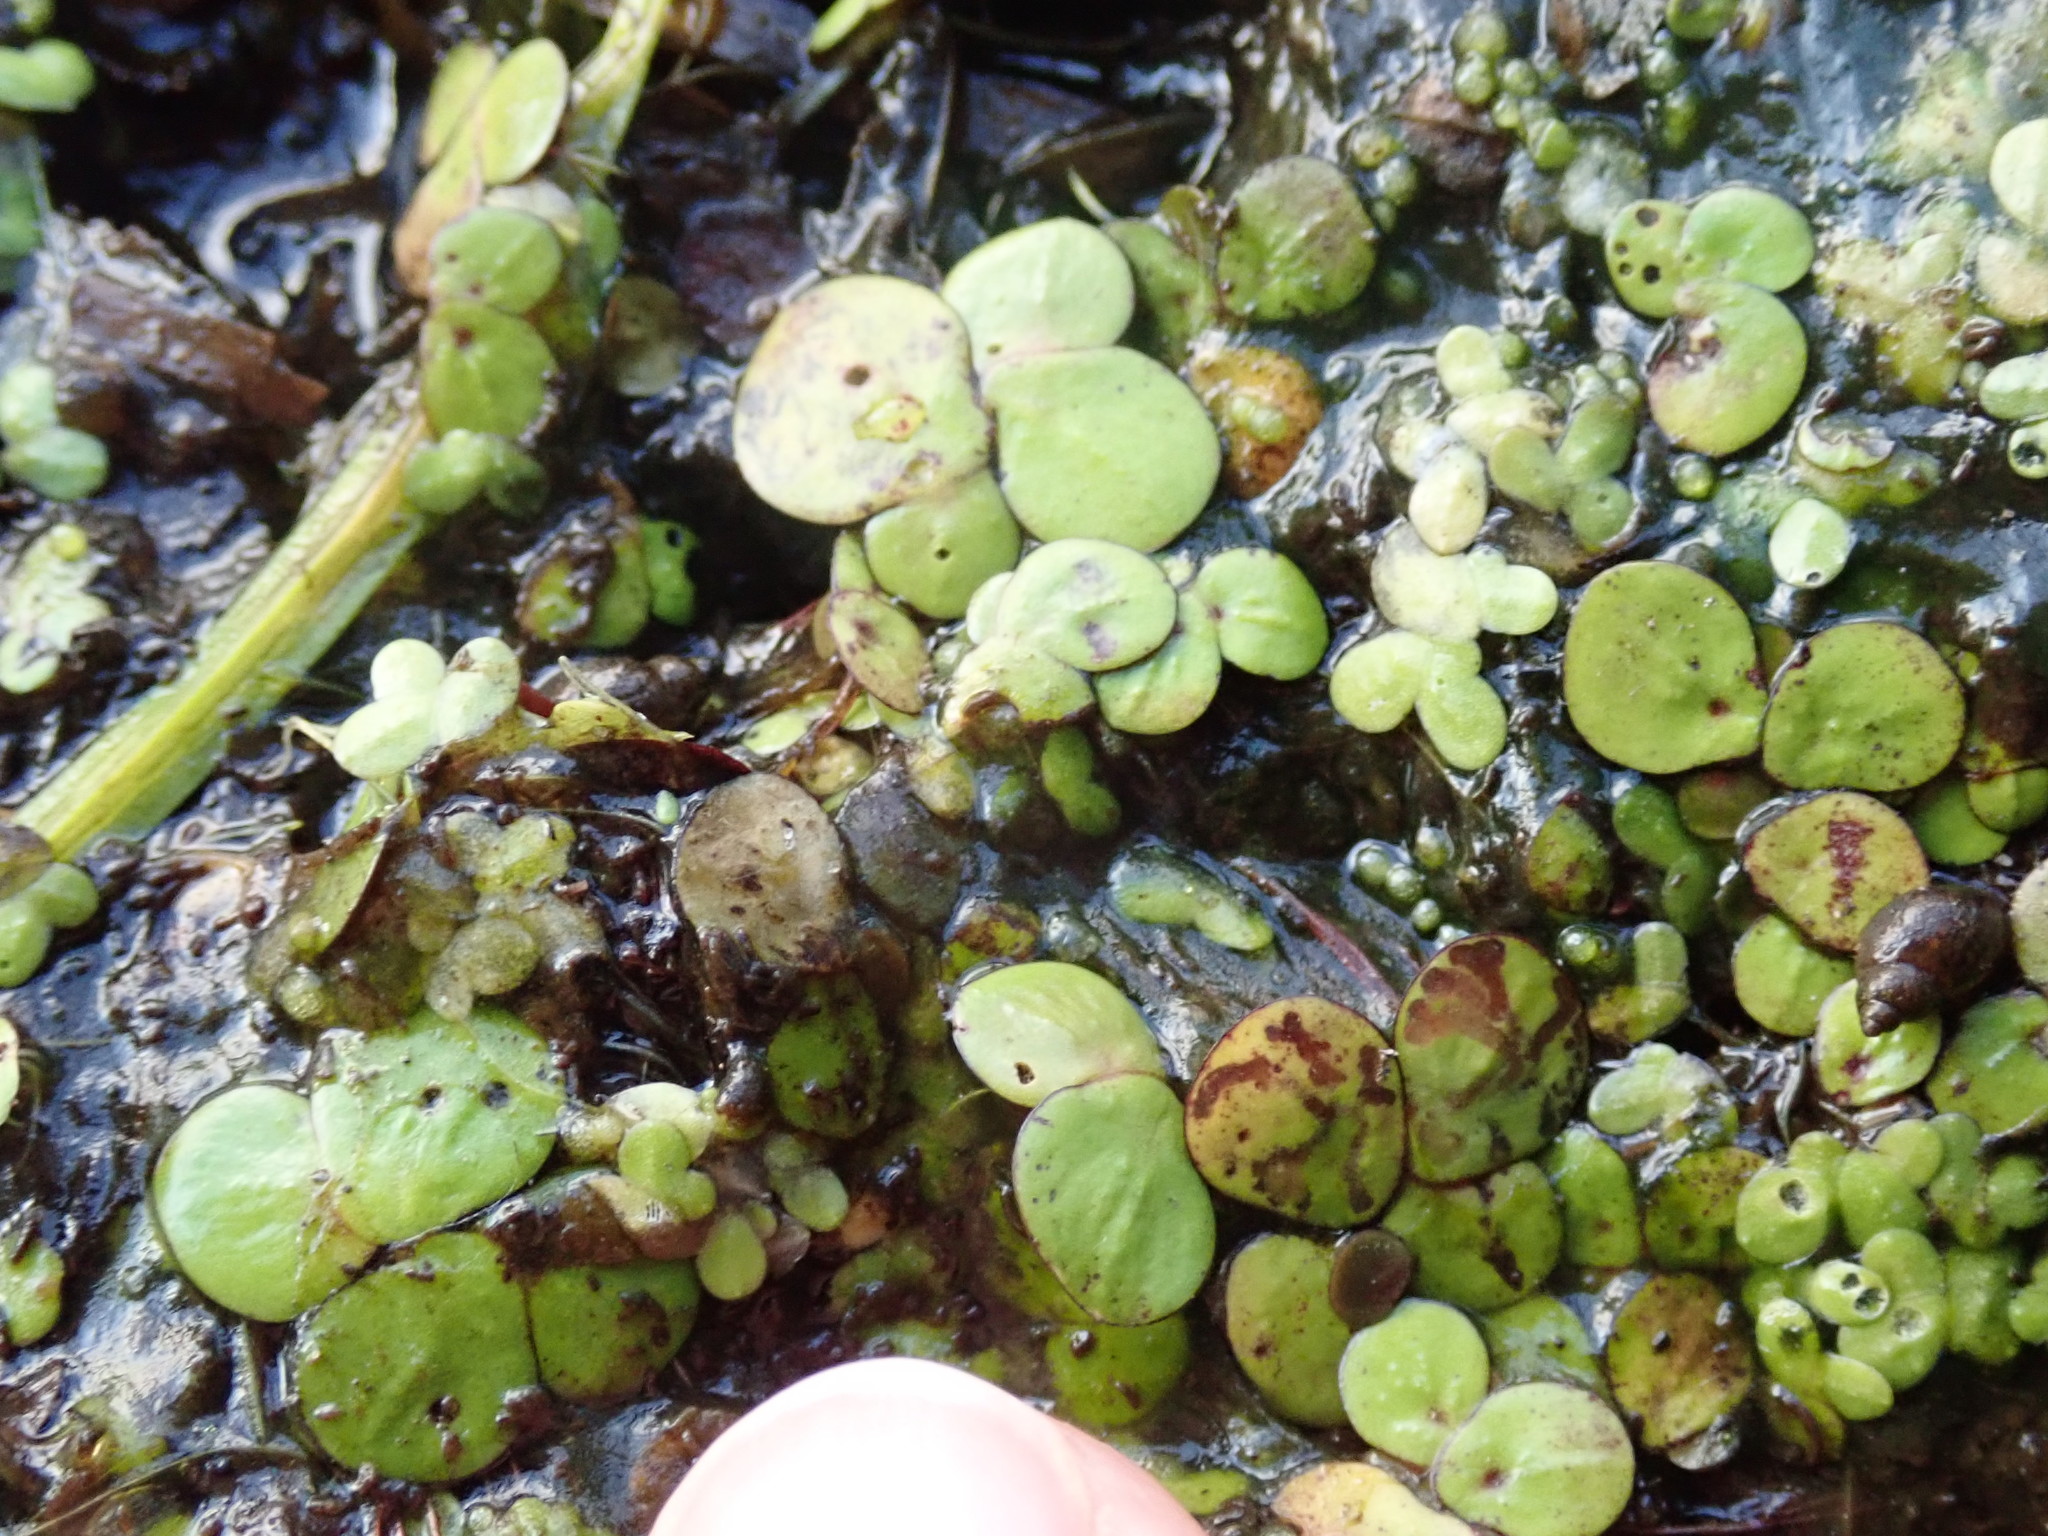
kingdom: Plantae
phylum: Tracheophyta
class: Liliopsida
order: Alismatales
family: Araceae
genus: Spirodela
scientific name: Spirodela polyrhiza
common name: Great duckweed
